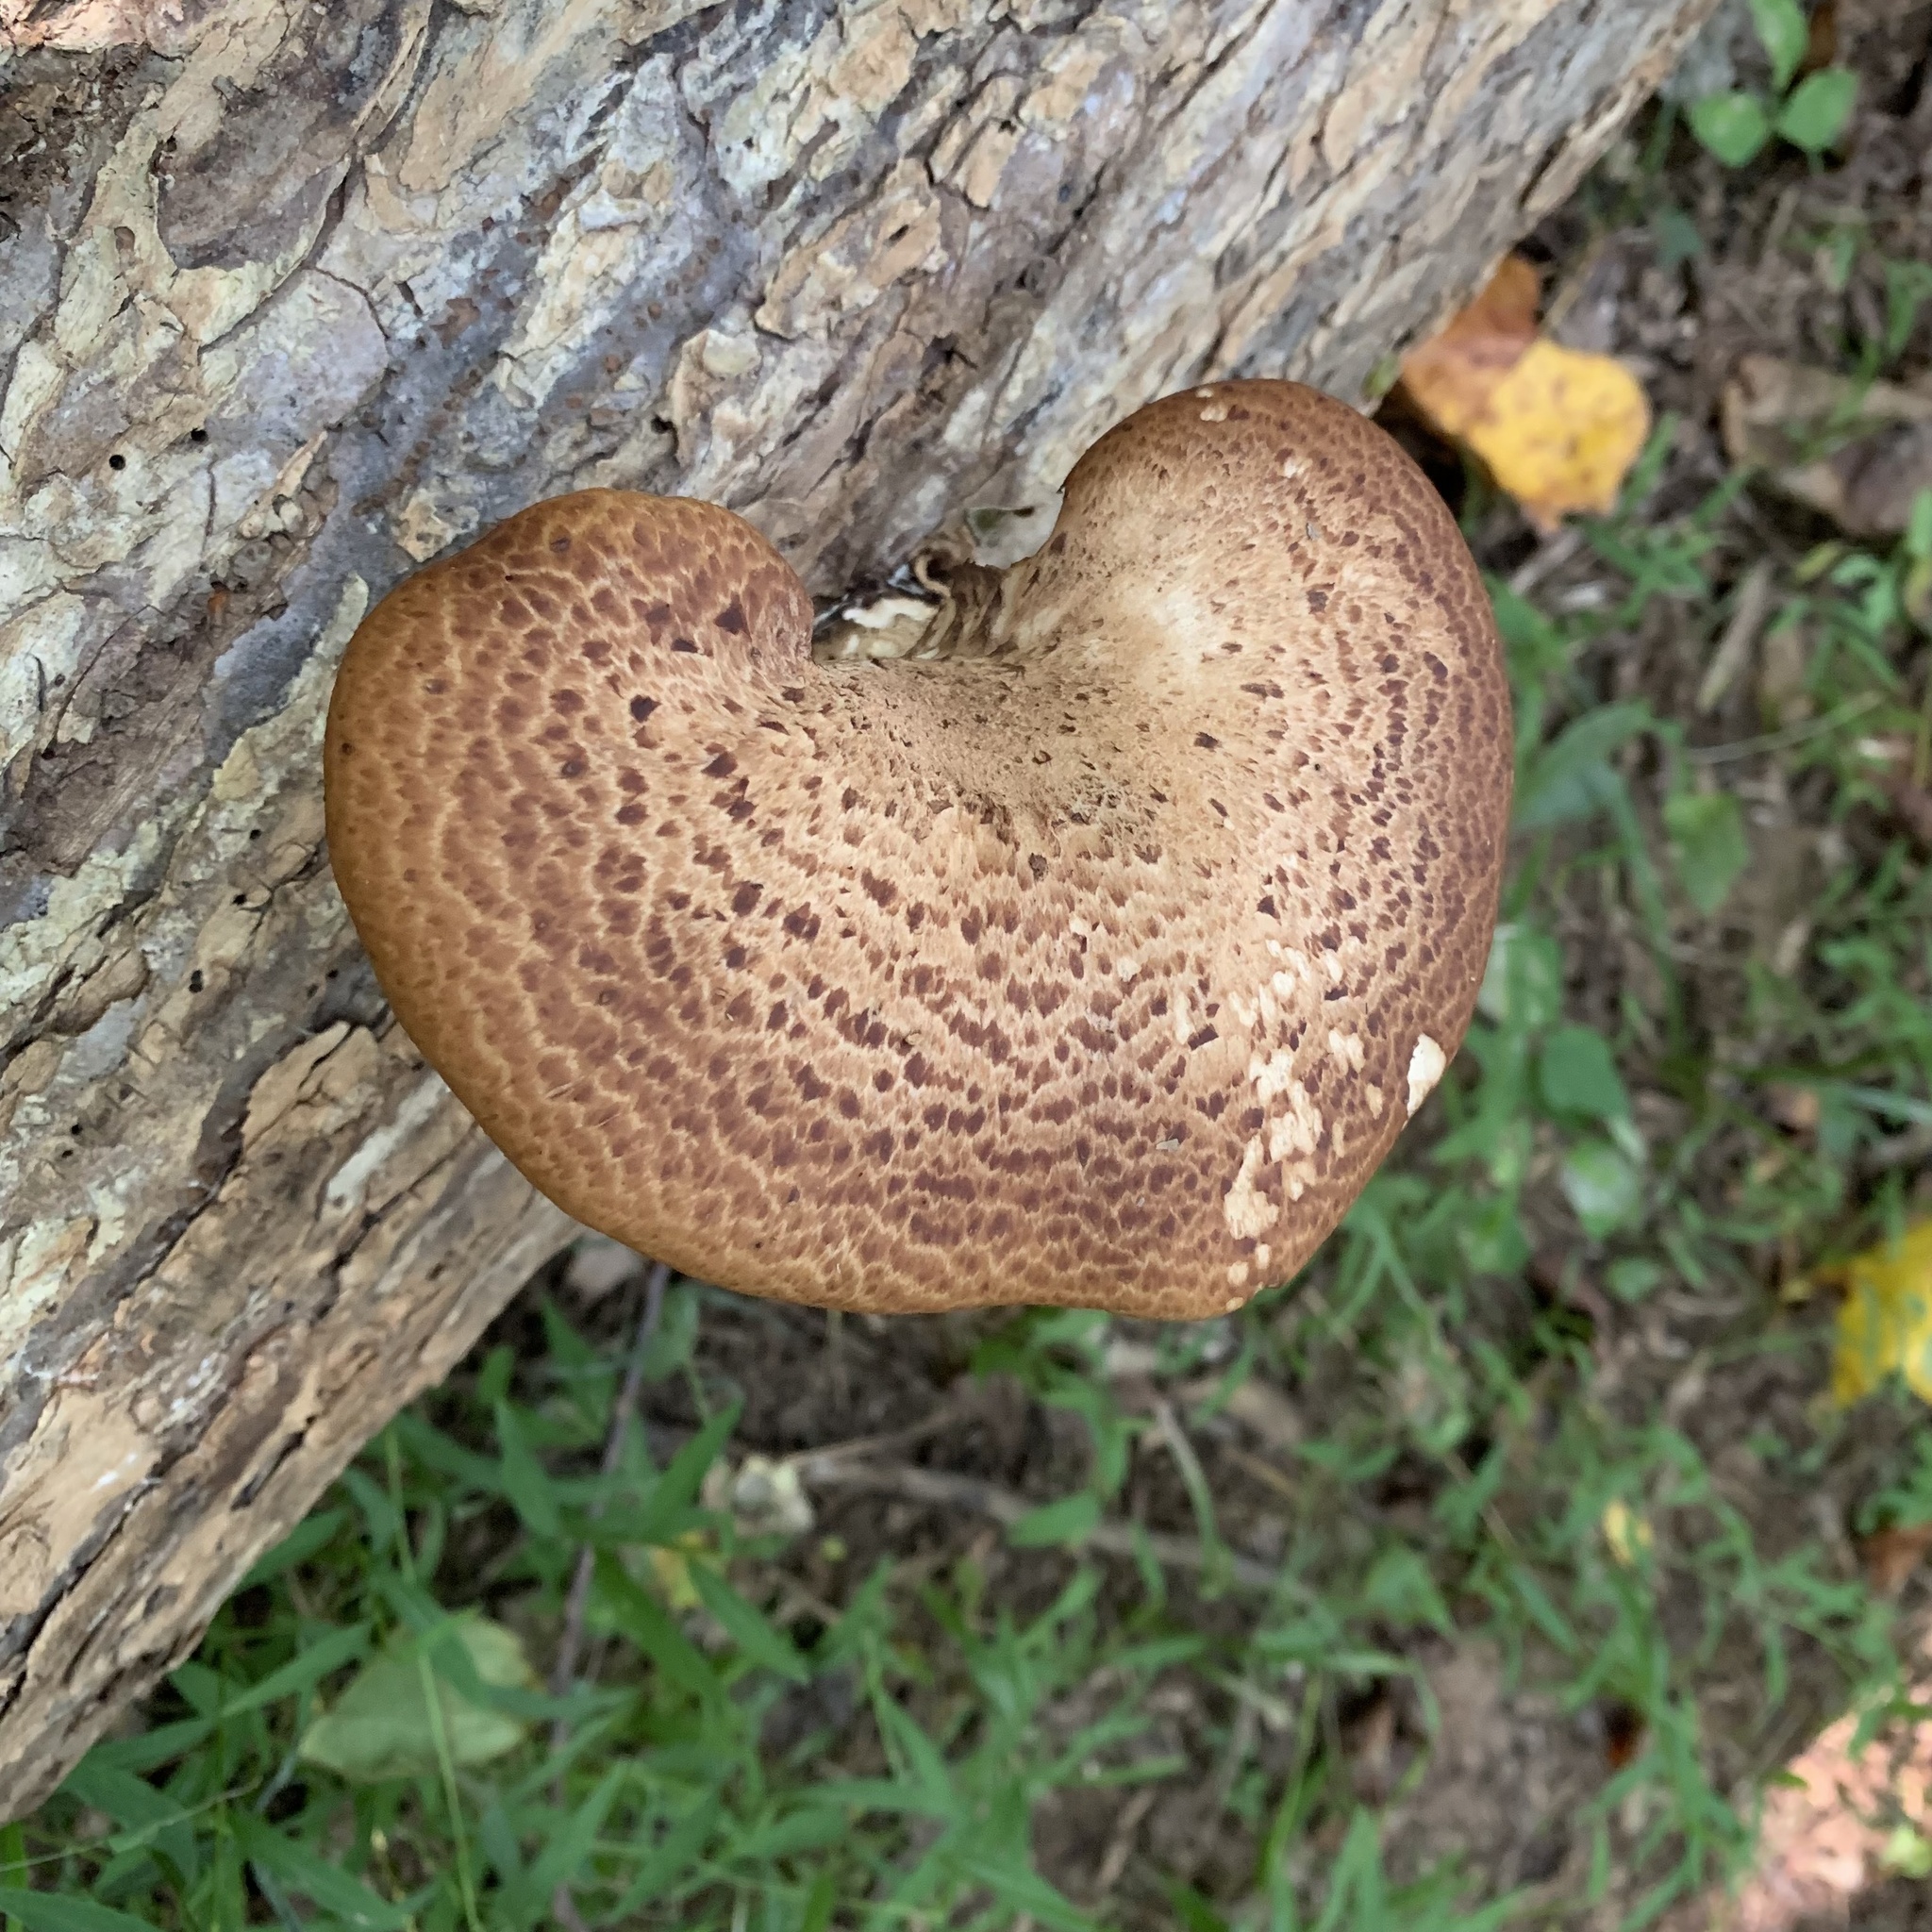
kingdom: Fungi
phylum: Basidiomycota
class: Agaricomycetes
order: Polyporales
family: Polyporaceae
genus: Cerioporus
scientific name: Cerioporus squamosus
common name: Dryad's saddle
